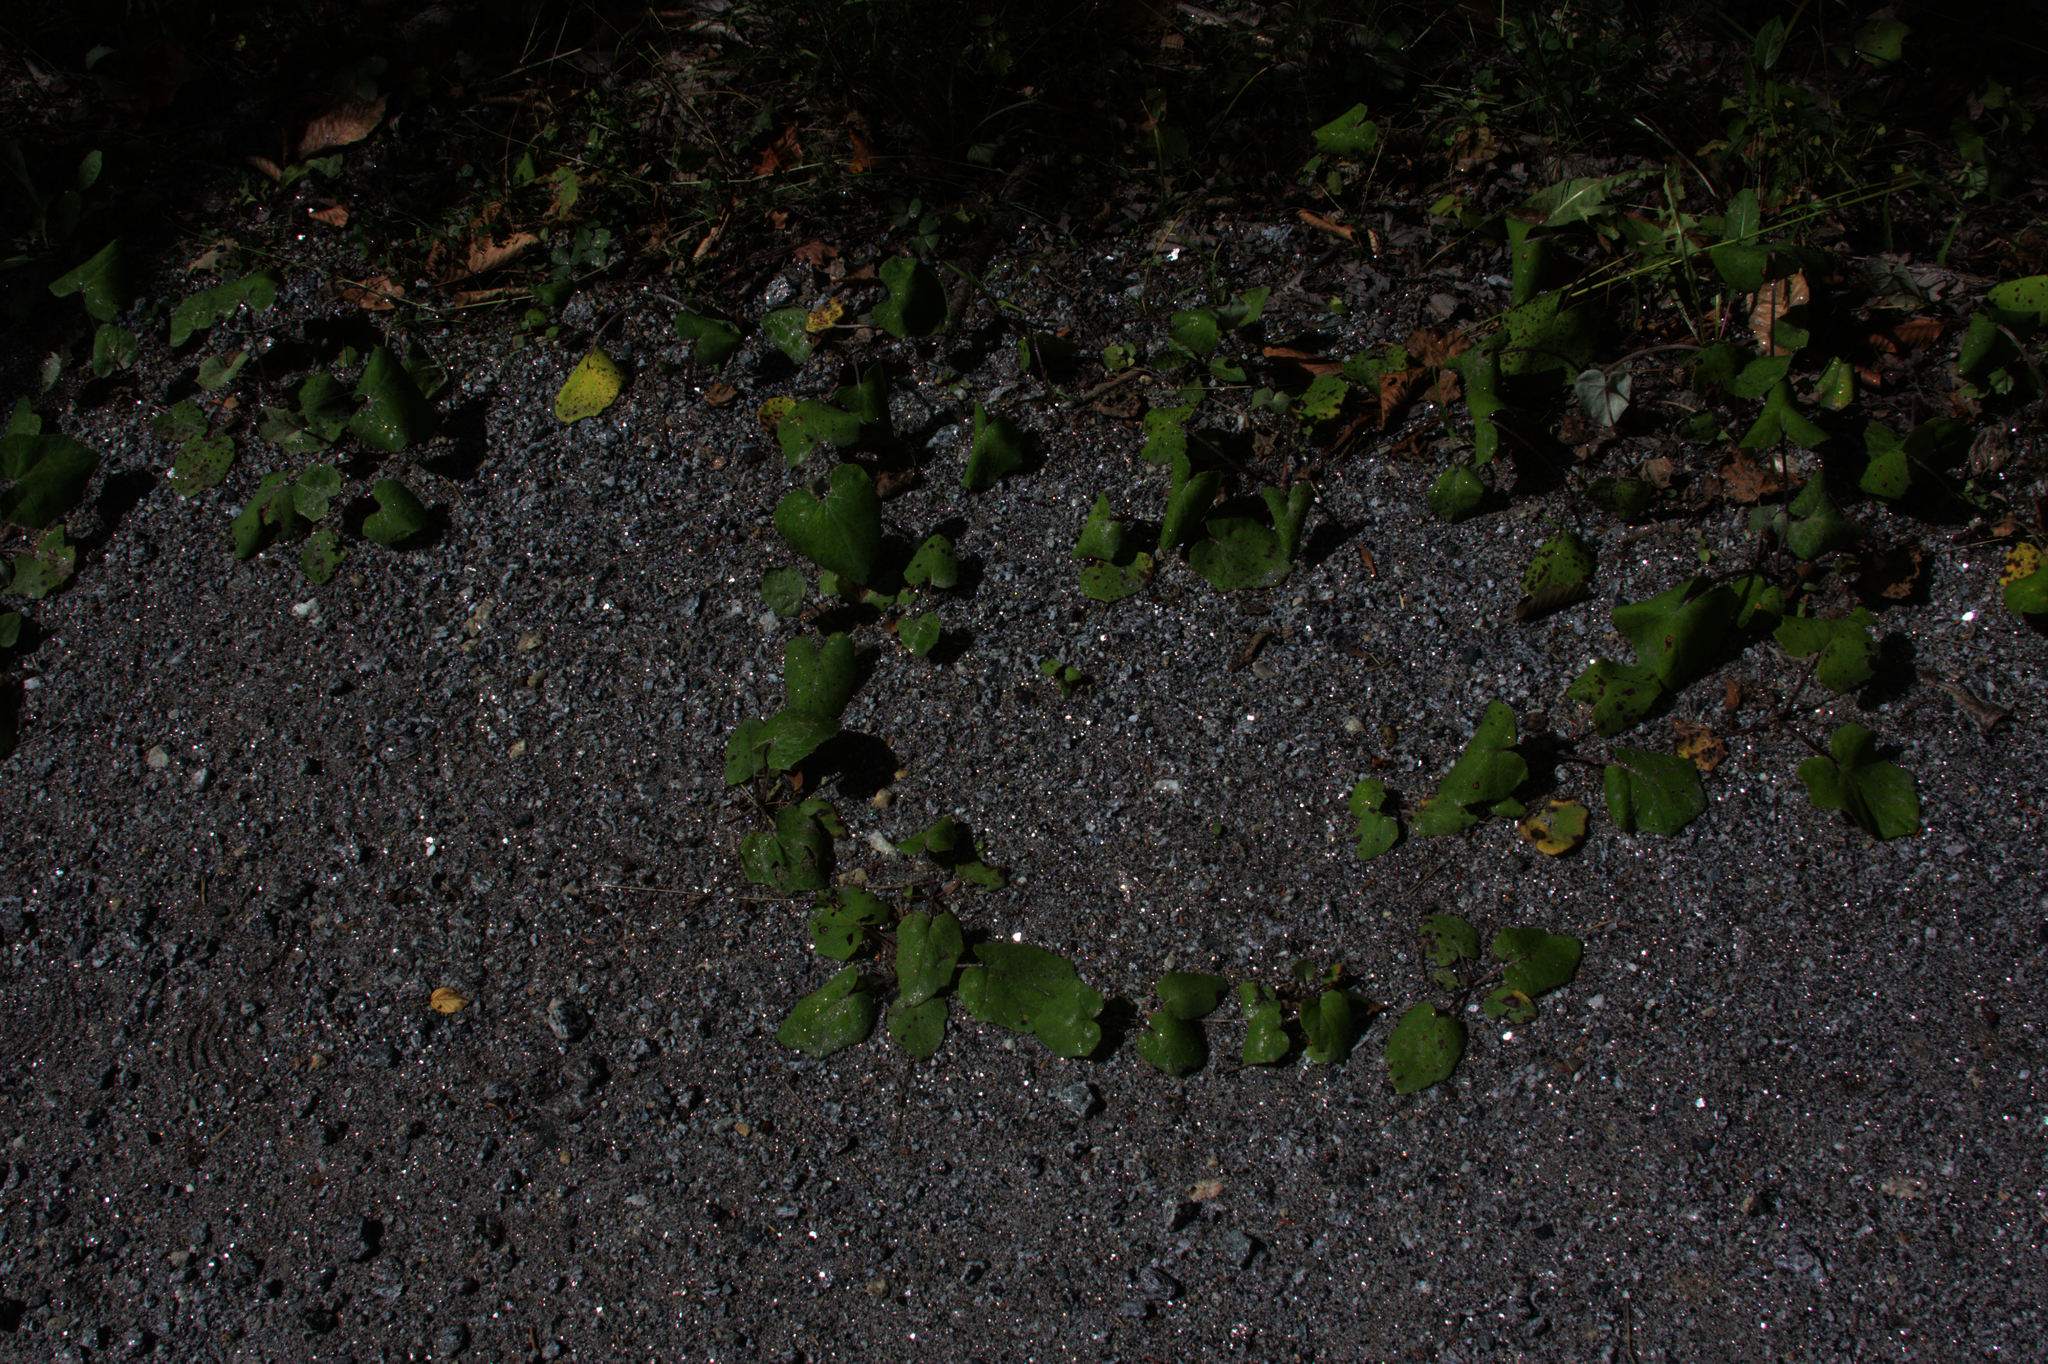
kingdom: Plantae
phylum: Tracheophyta
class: Magnoliopsida
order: Asterales
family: Asteraceae
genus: Tussilago
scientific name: Tussilago farfara
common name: Coltsfoot
